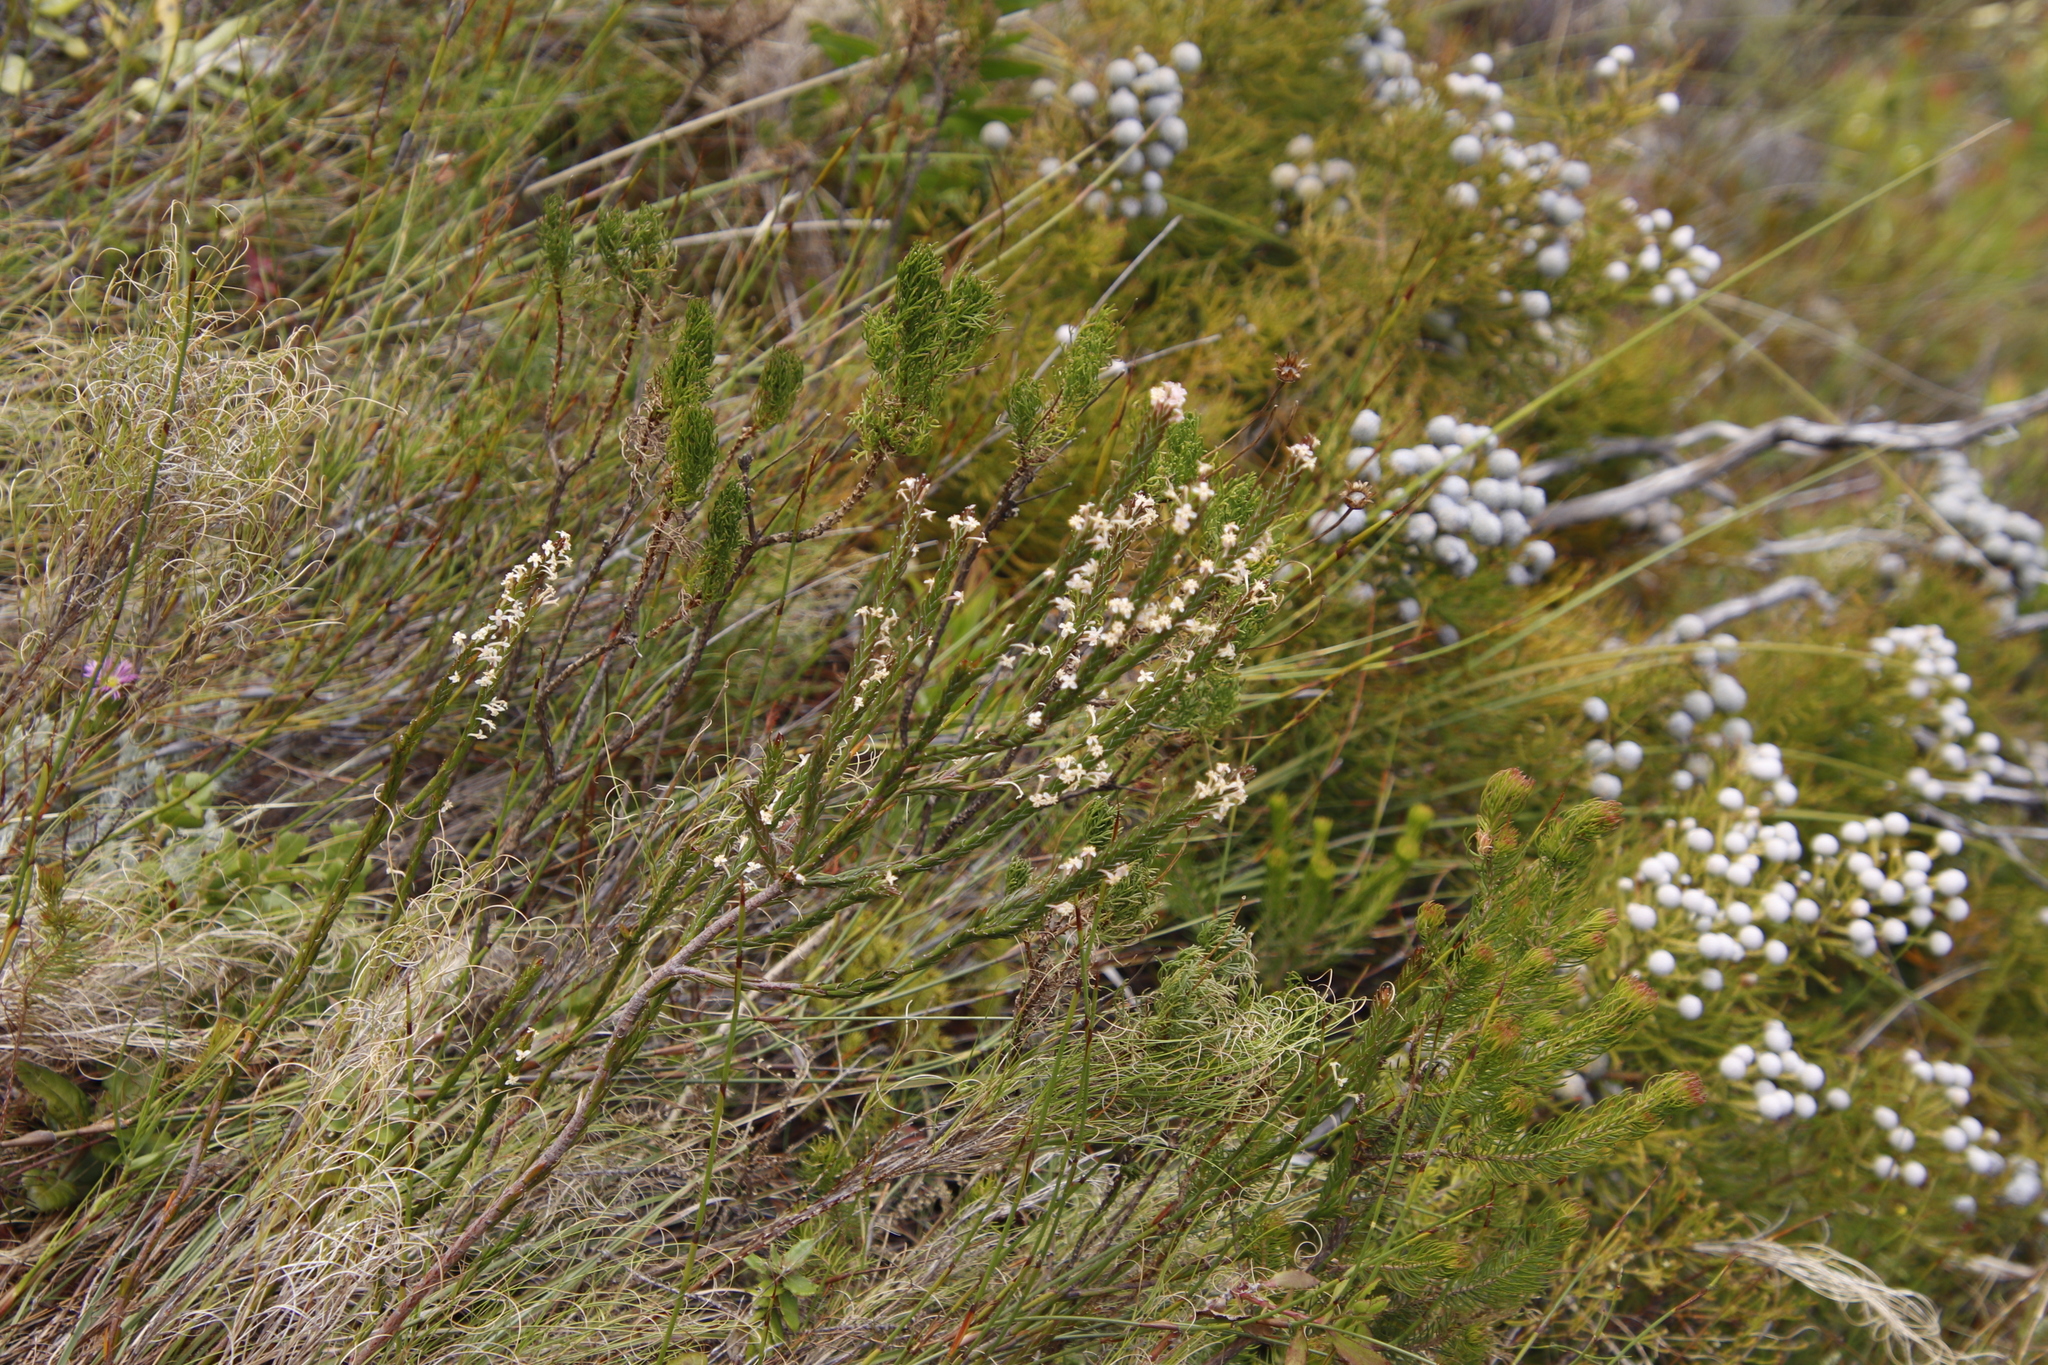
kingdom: Plantae
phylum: Tracheophyta
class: Magnoliopsida
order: Malvales
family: Thymelaeaceae
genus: Struthiola
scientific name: Struthiola ciliata
